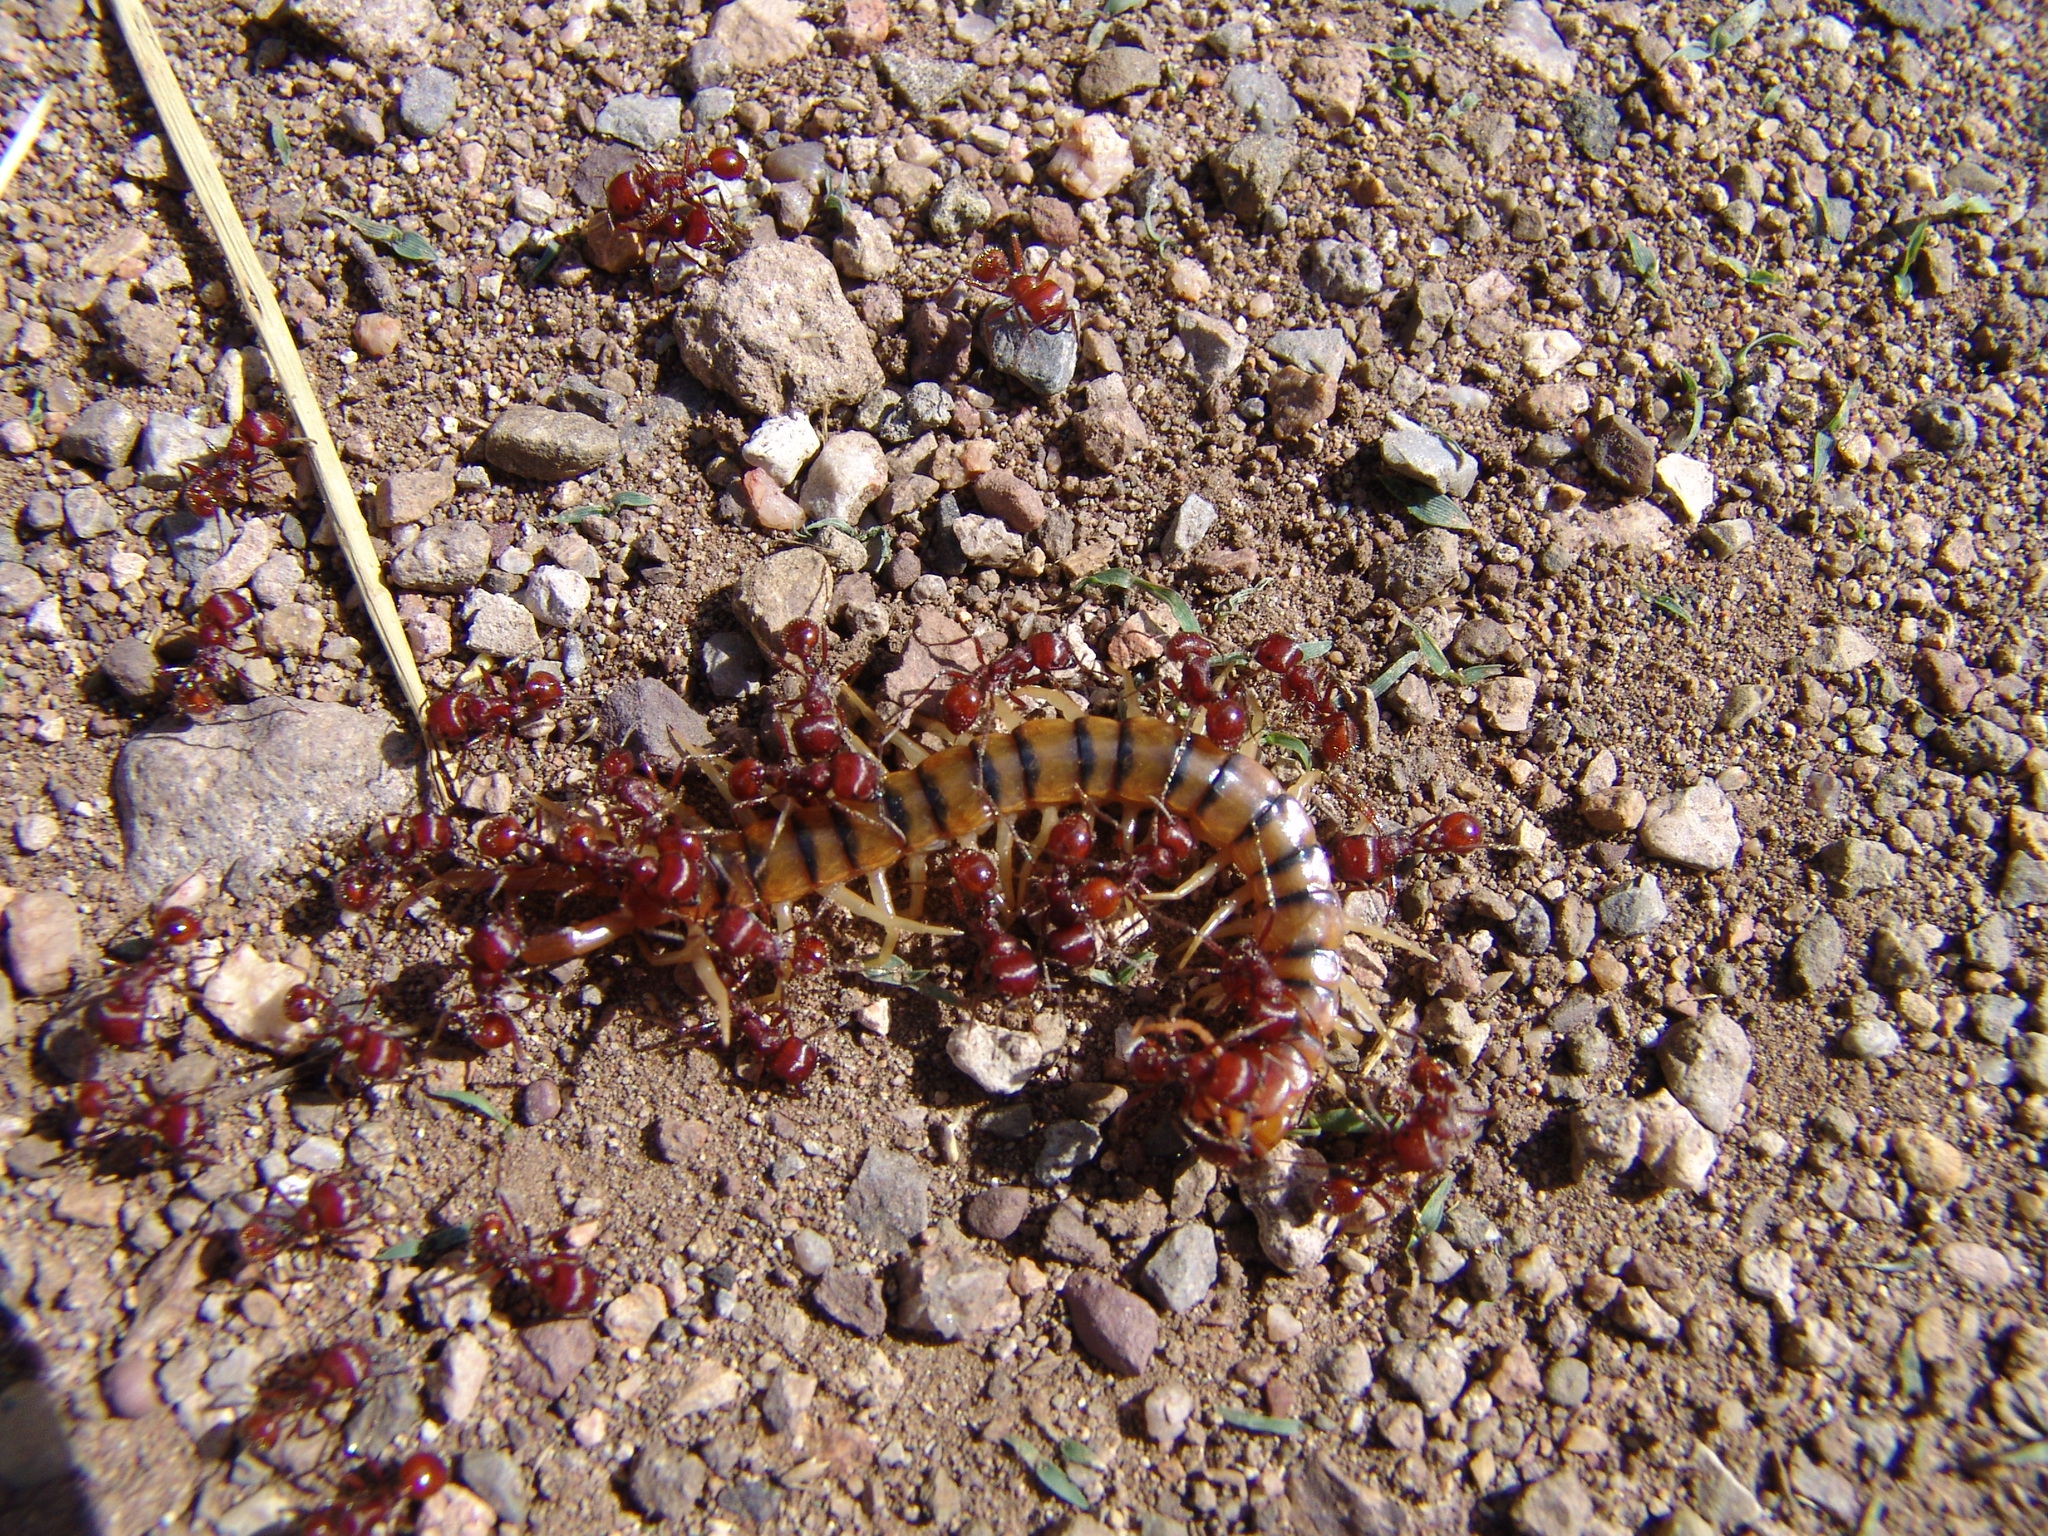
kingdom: Animalia
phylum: Arthropoda
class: Insecta
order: Hymenoptera
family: Formicidae
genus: Pogonomyrmex
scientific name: Pogonomyrmex barbatus
